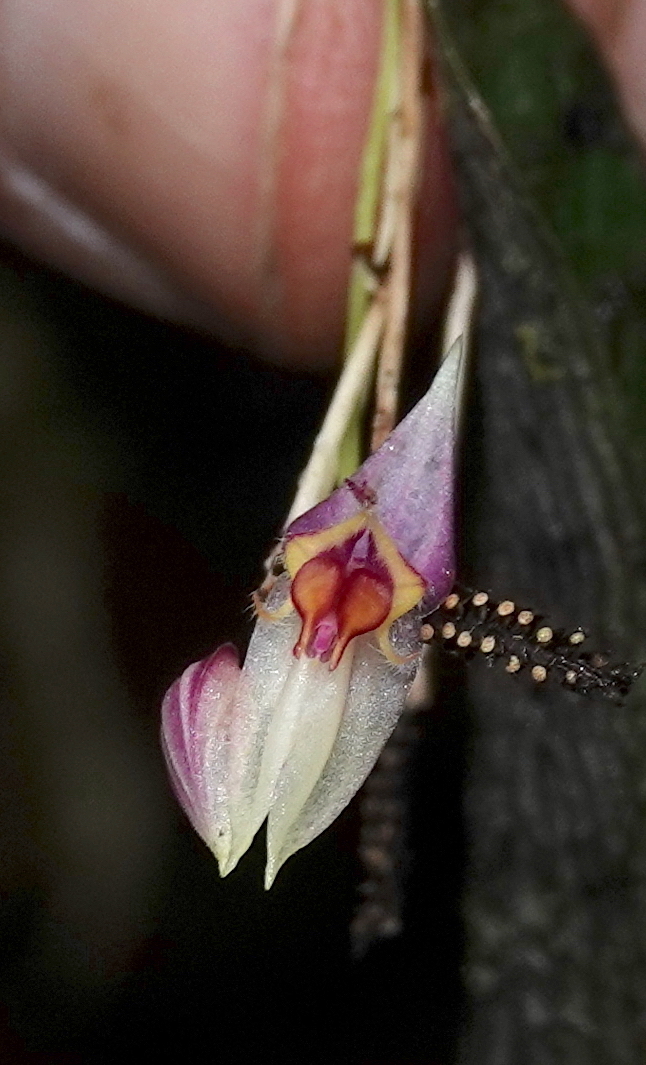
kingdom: Plantae
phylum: Tracheophyta
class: Liliopsida
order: Asparagales
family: Orchidaceae
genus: Lepanthes
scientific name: Lepanthes volvox
